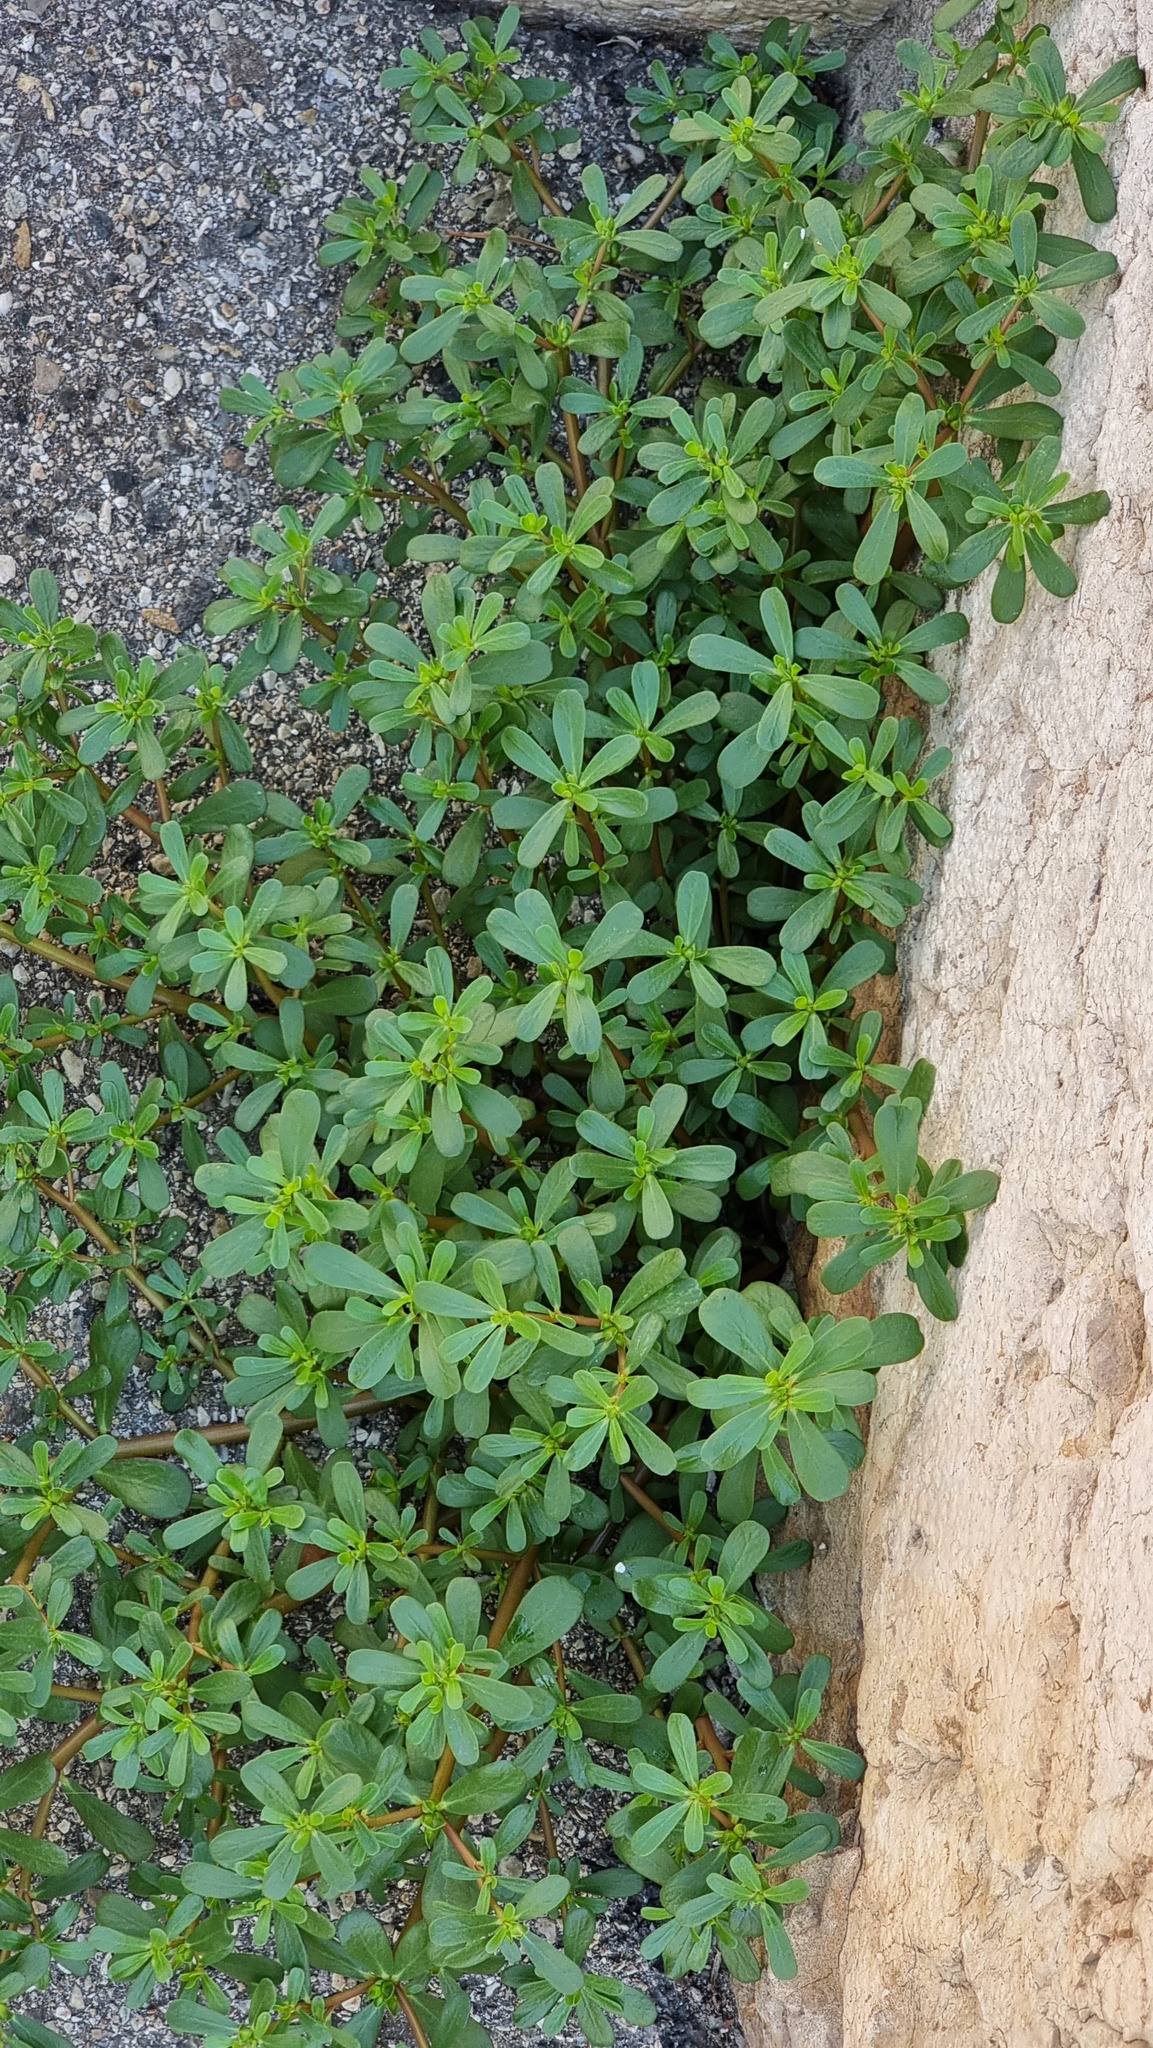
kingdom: Plantae
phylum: Tracheophyta
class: Magnoliopsida
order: Caryophyllales
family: Portulacaceae
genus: Portulaca
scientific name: Portulaca oleracea
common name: Common purslane
